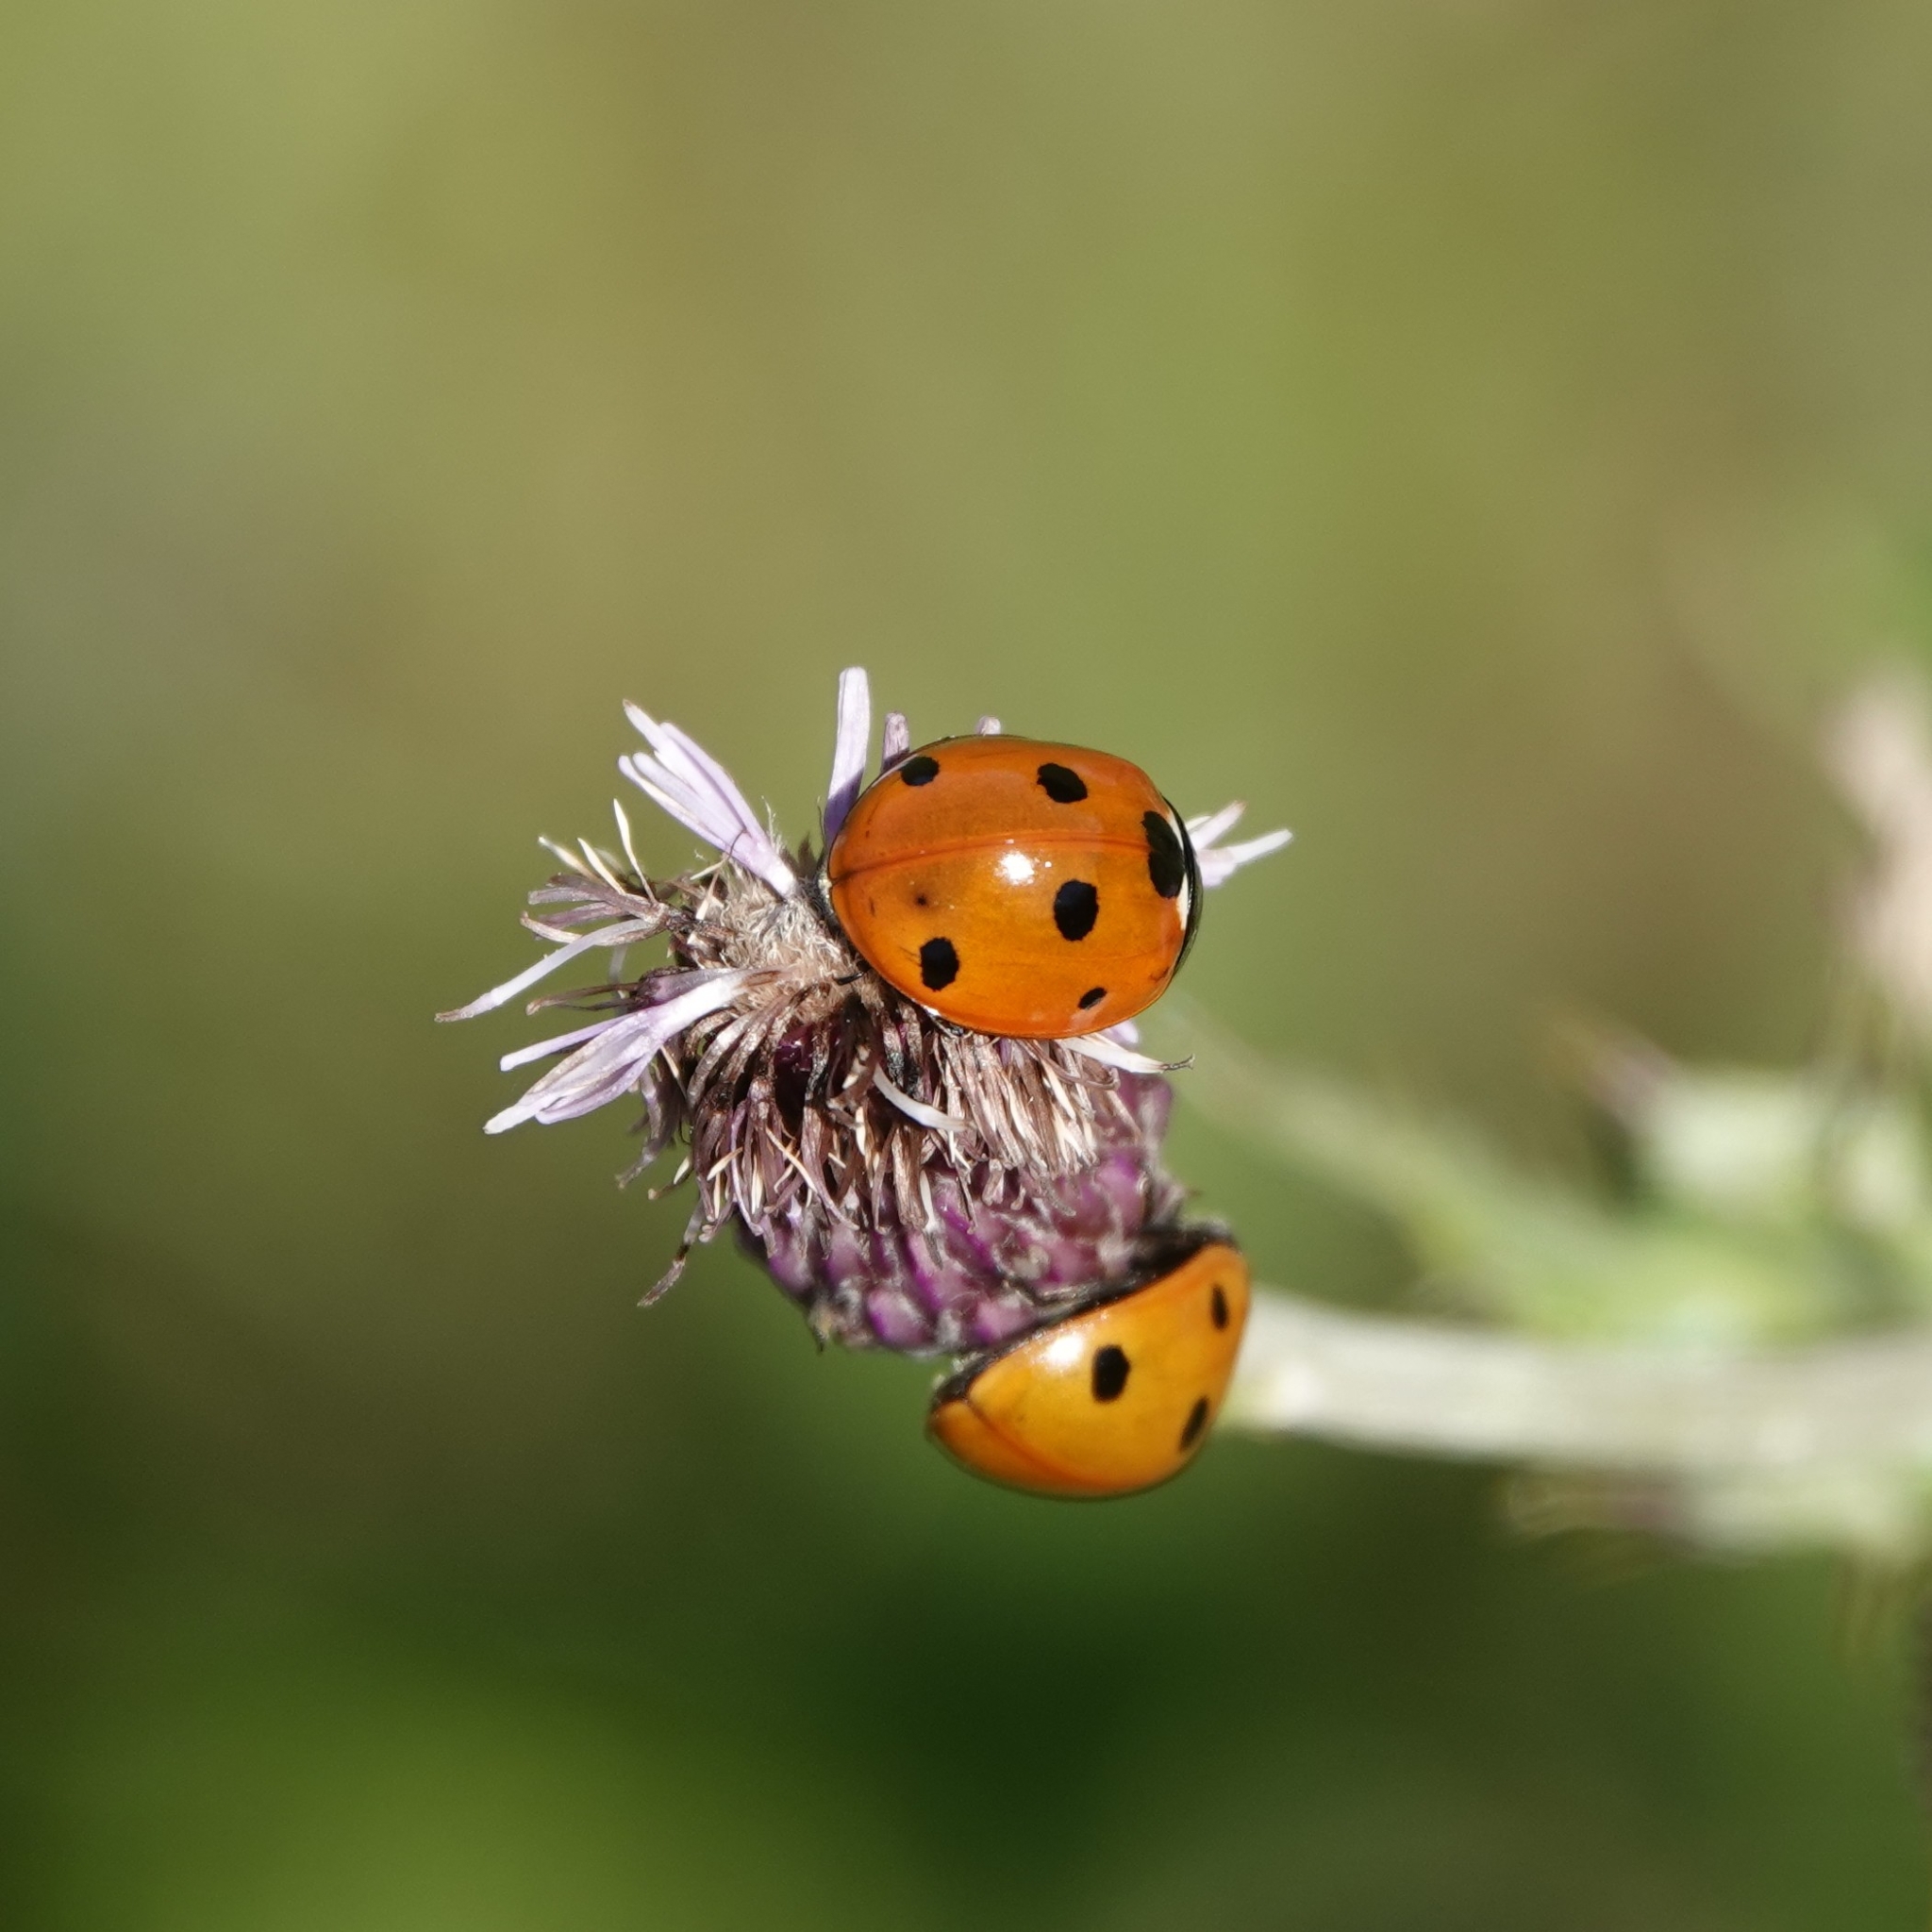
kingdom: Animalia
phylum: Arthropoda
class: Insecta
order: Coleoptera
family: Coccinellidae
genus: Coccinella
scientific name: Coccinella septempunctata
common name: Sevenspotted lady beetle
